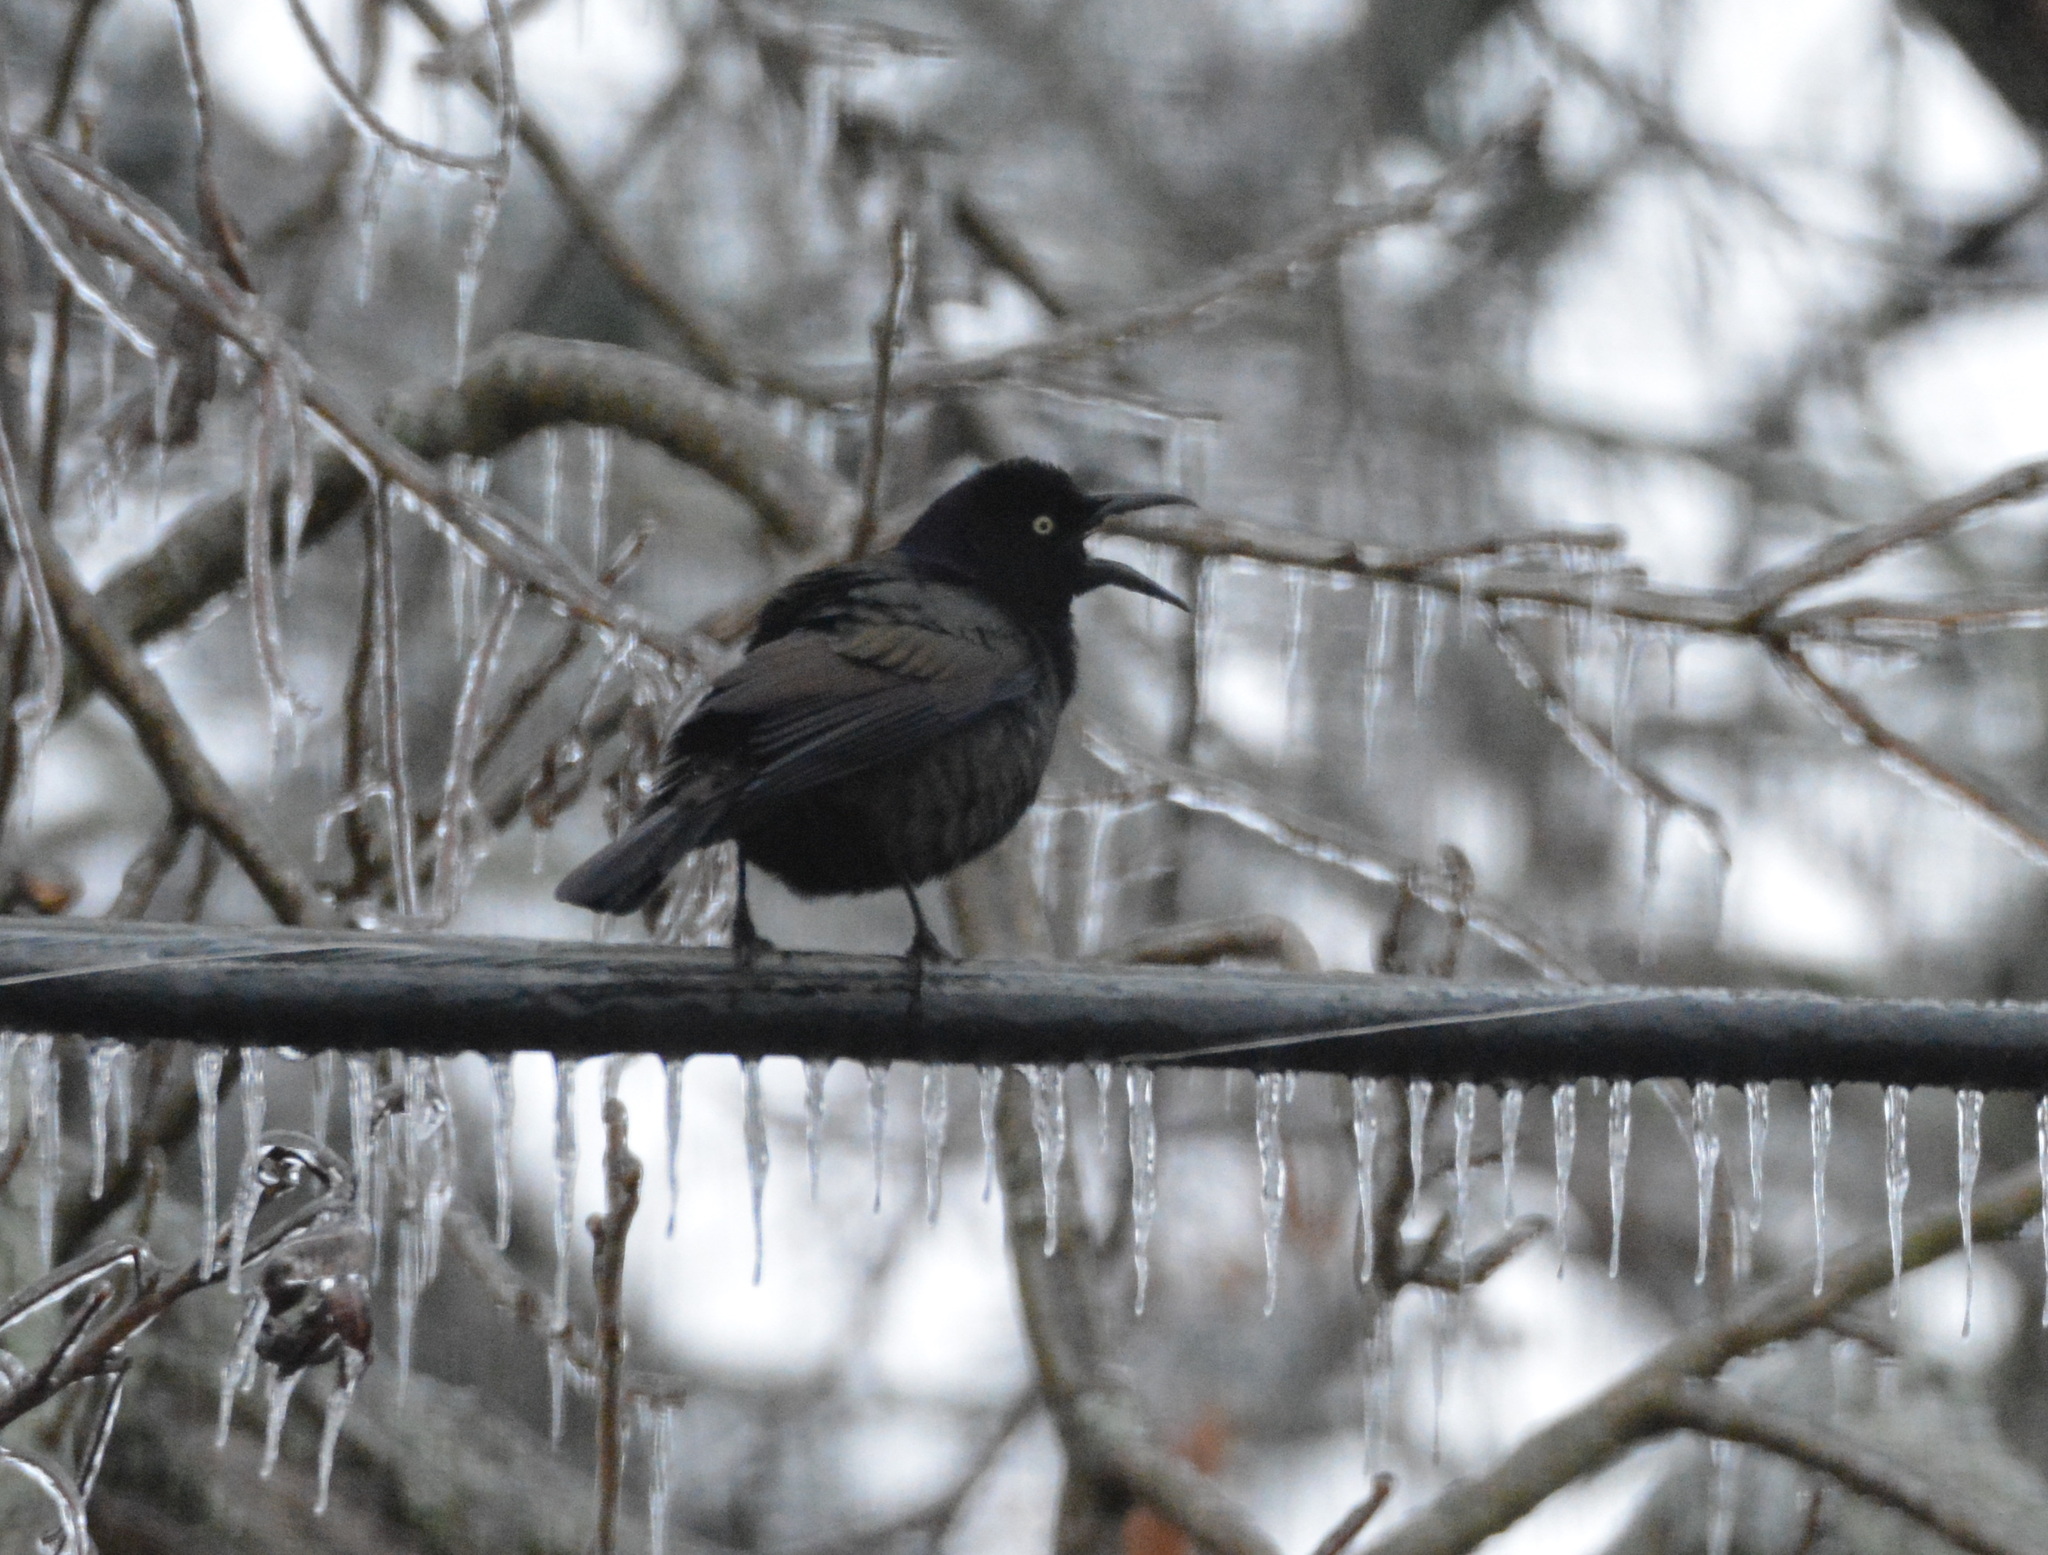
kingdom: Animalia
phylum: Chordata
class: Aves
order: Passeriformes
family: Icteridae
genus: Quiscalus
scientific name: Quiscalus quiscula
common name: Common grackle
